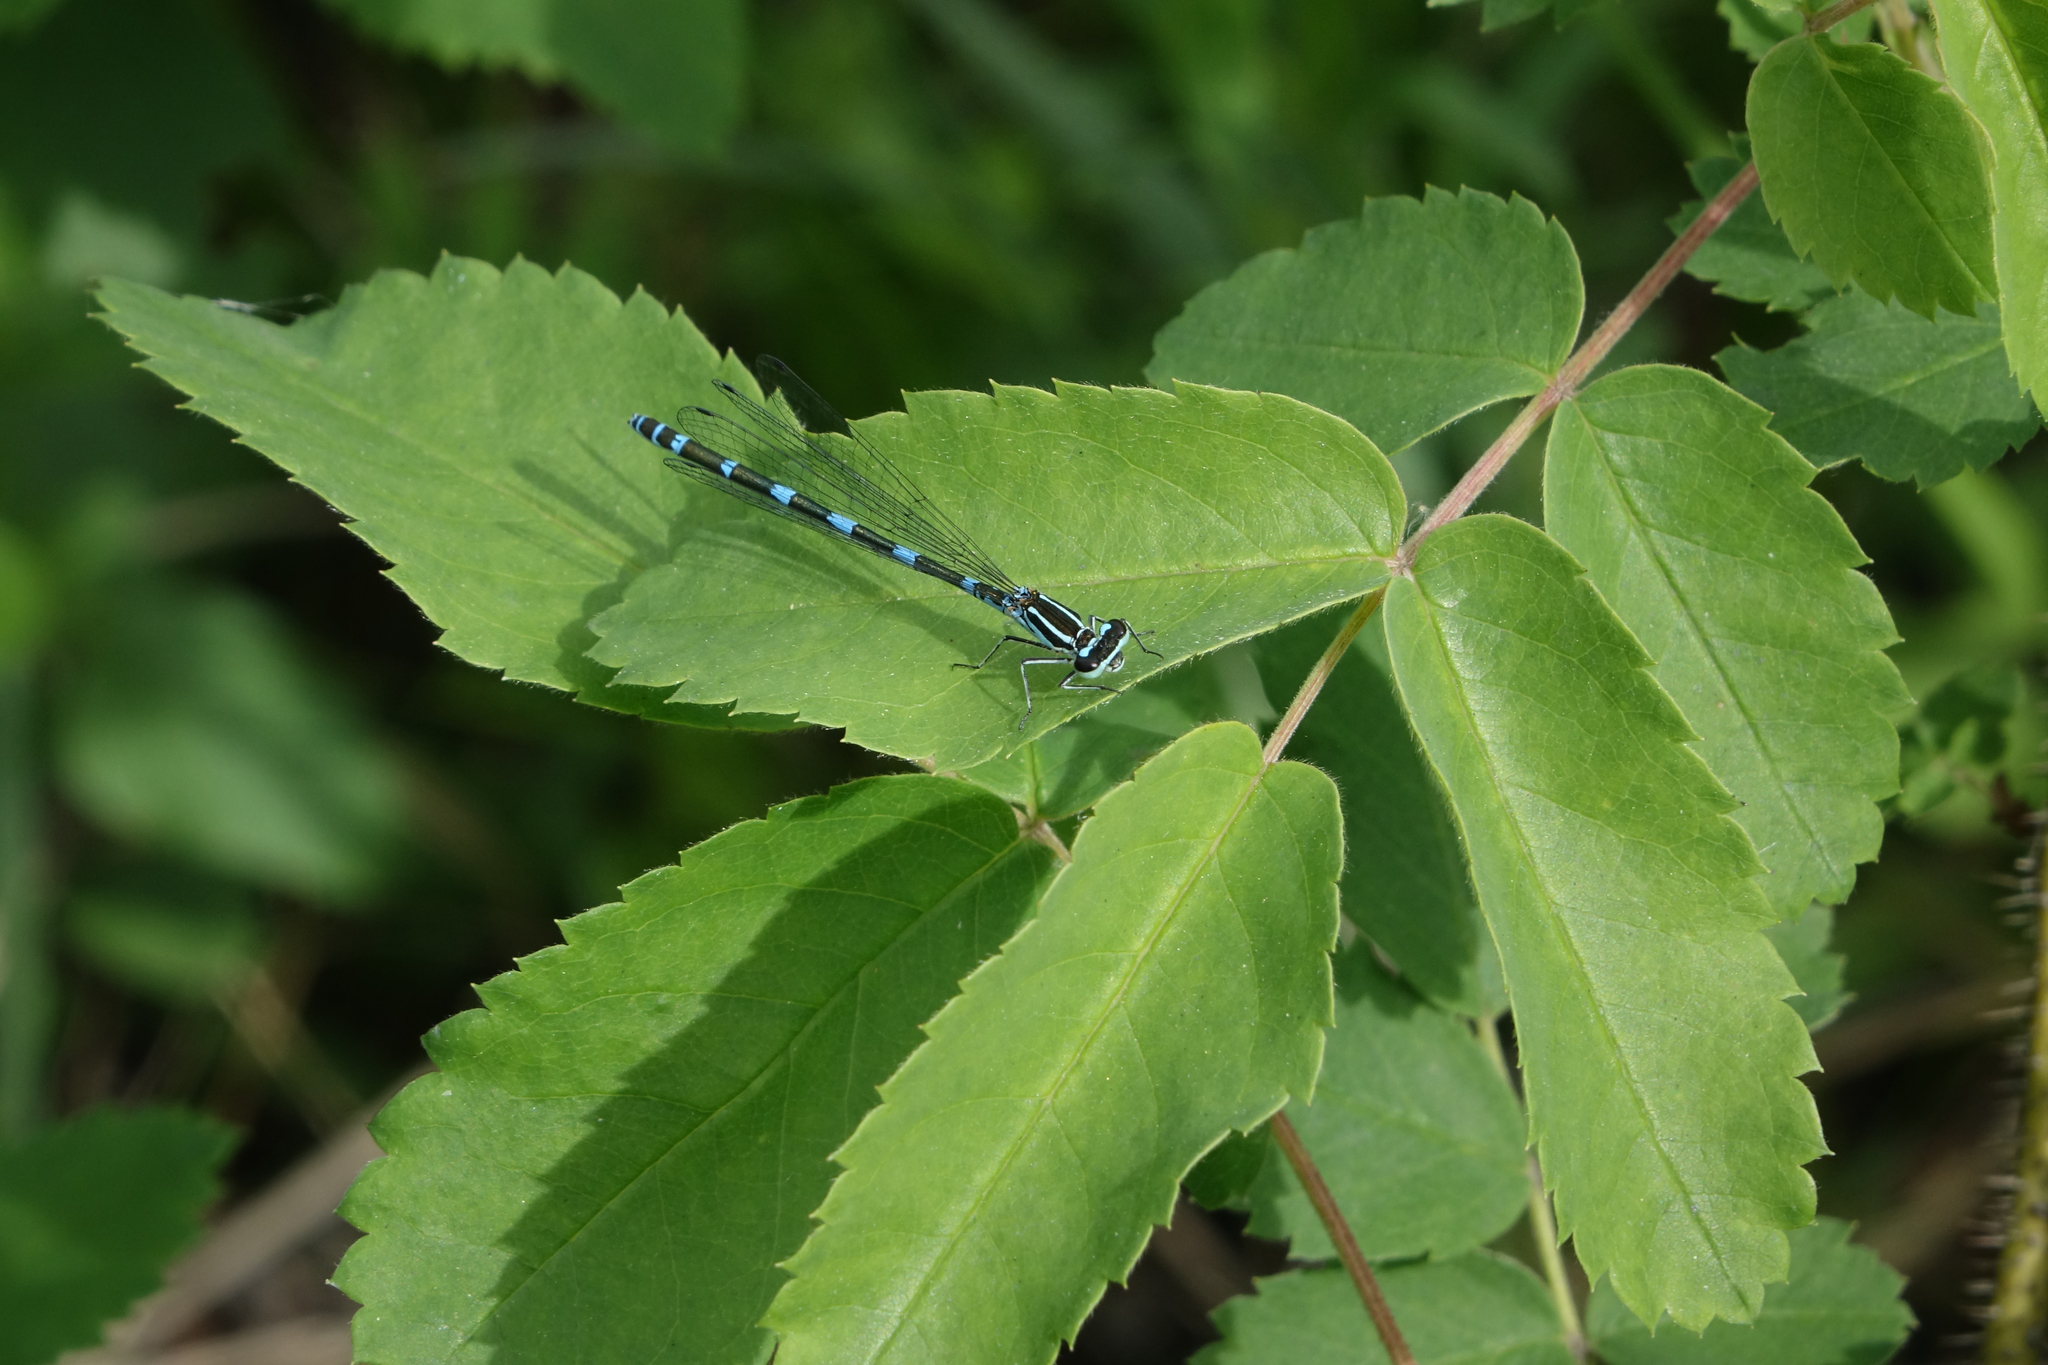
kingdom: Animalia
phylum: Arthropoda
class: Insecta
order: Odonata
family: Coenagrionidae
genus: Coenagrion
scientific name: Coenagrion puella
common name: Azure damselfly
